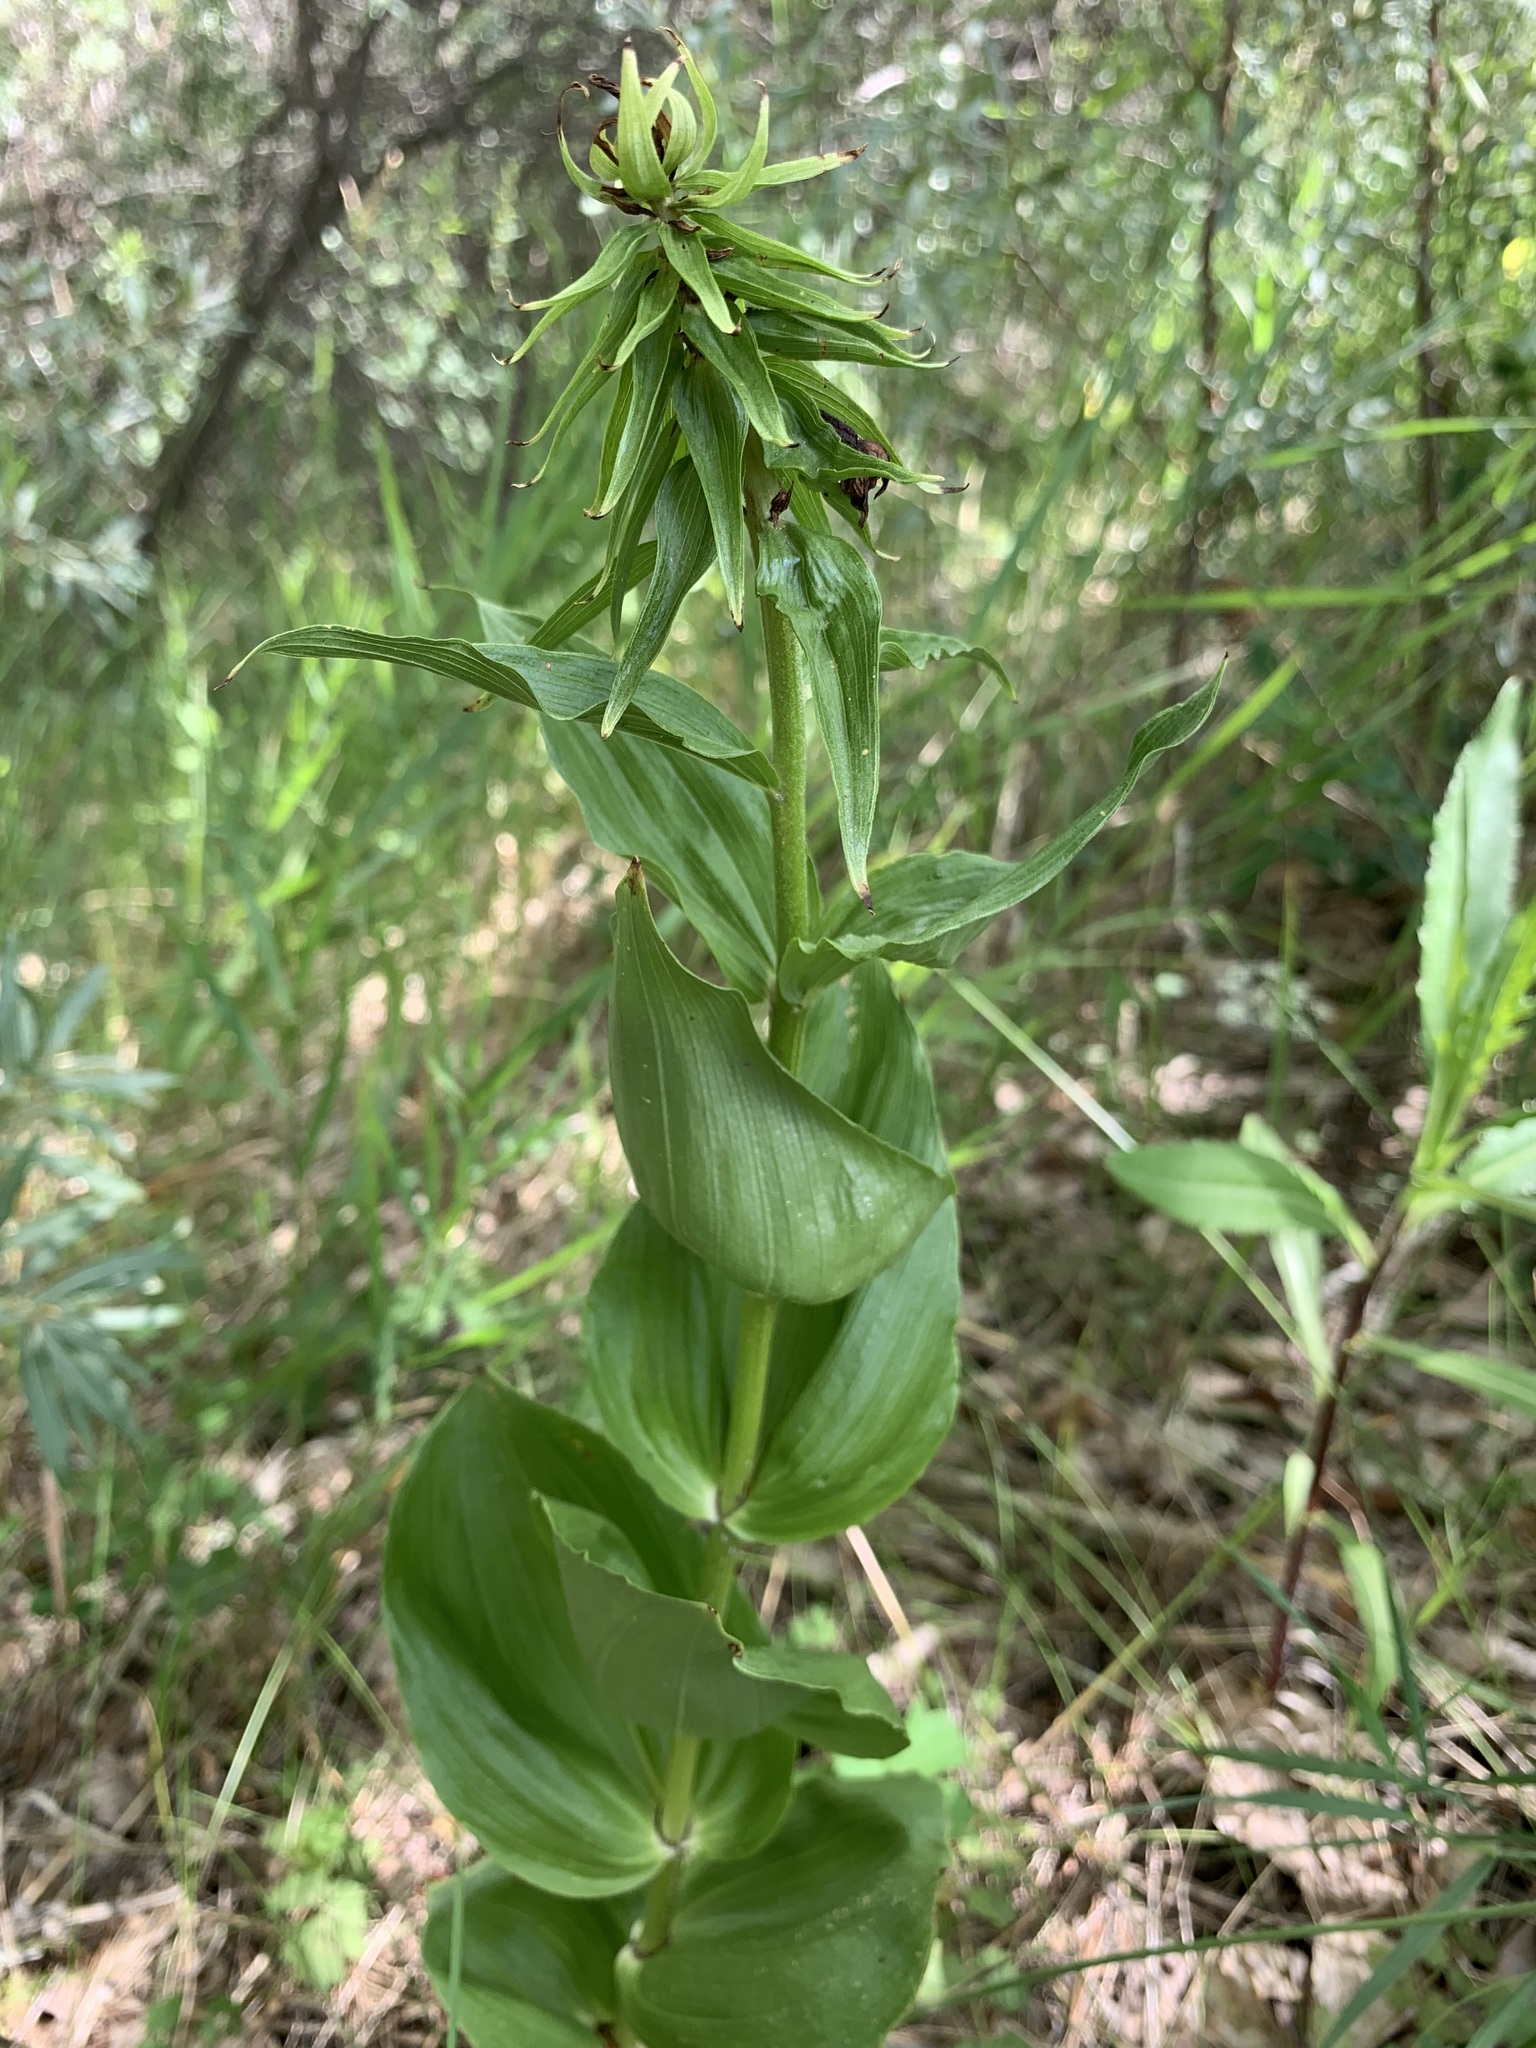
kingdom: Plantae
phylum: Tracheophyta
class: Liliopsida
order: Asparagales
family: Orchidaceae
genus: Epipactis
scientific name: Epipactis helleborine
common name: Broad-leaved helleborine
